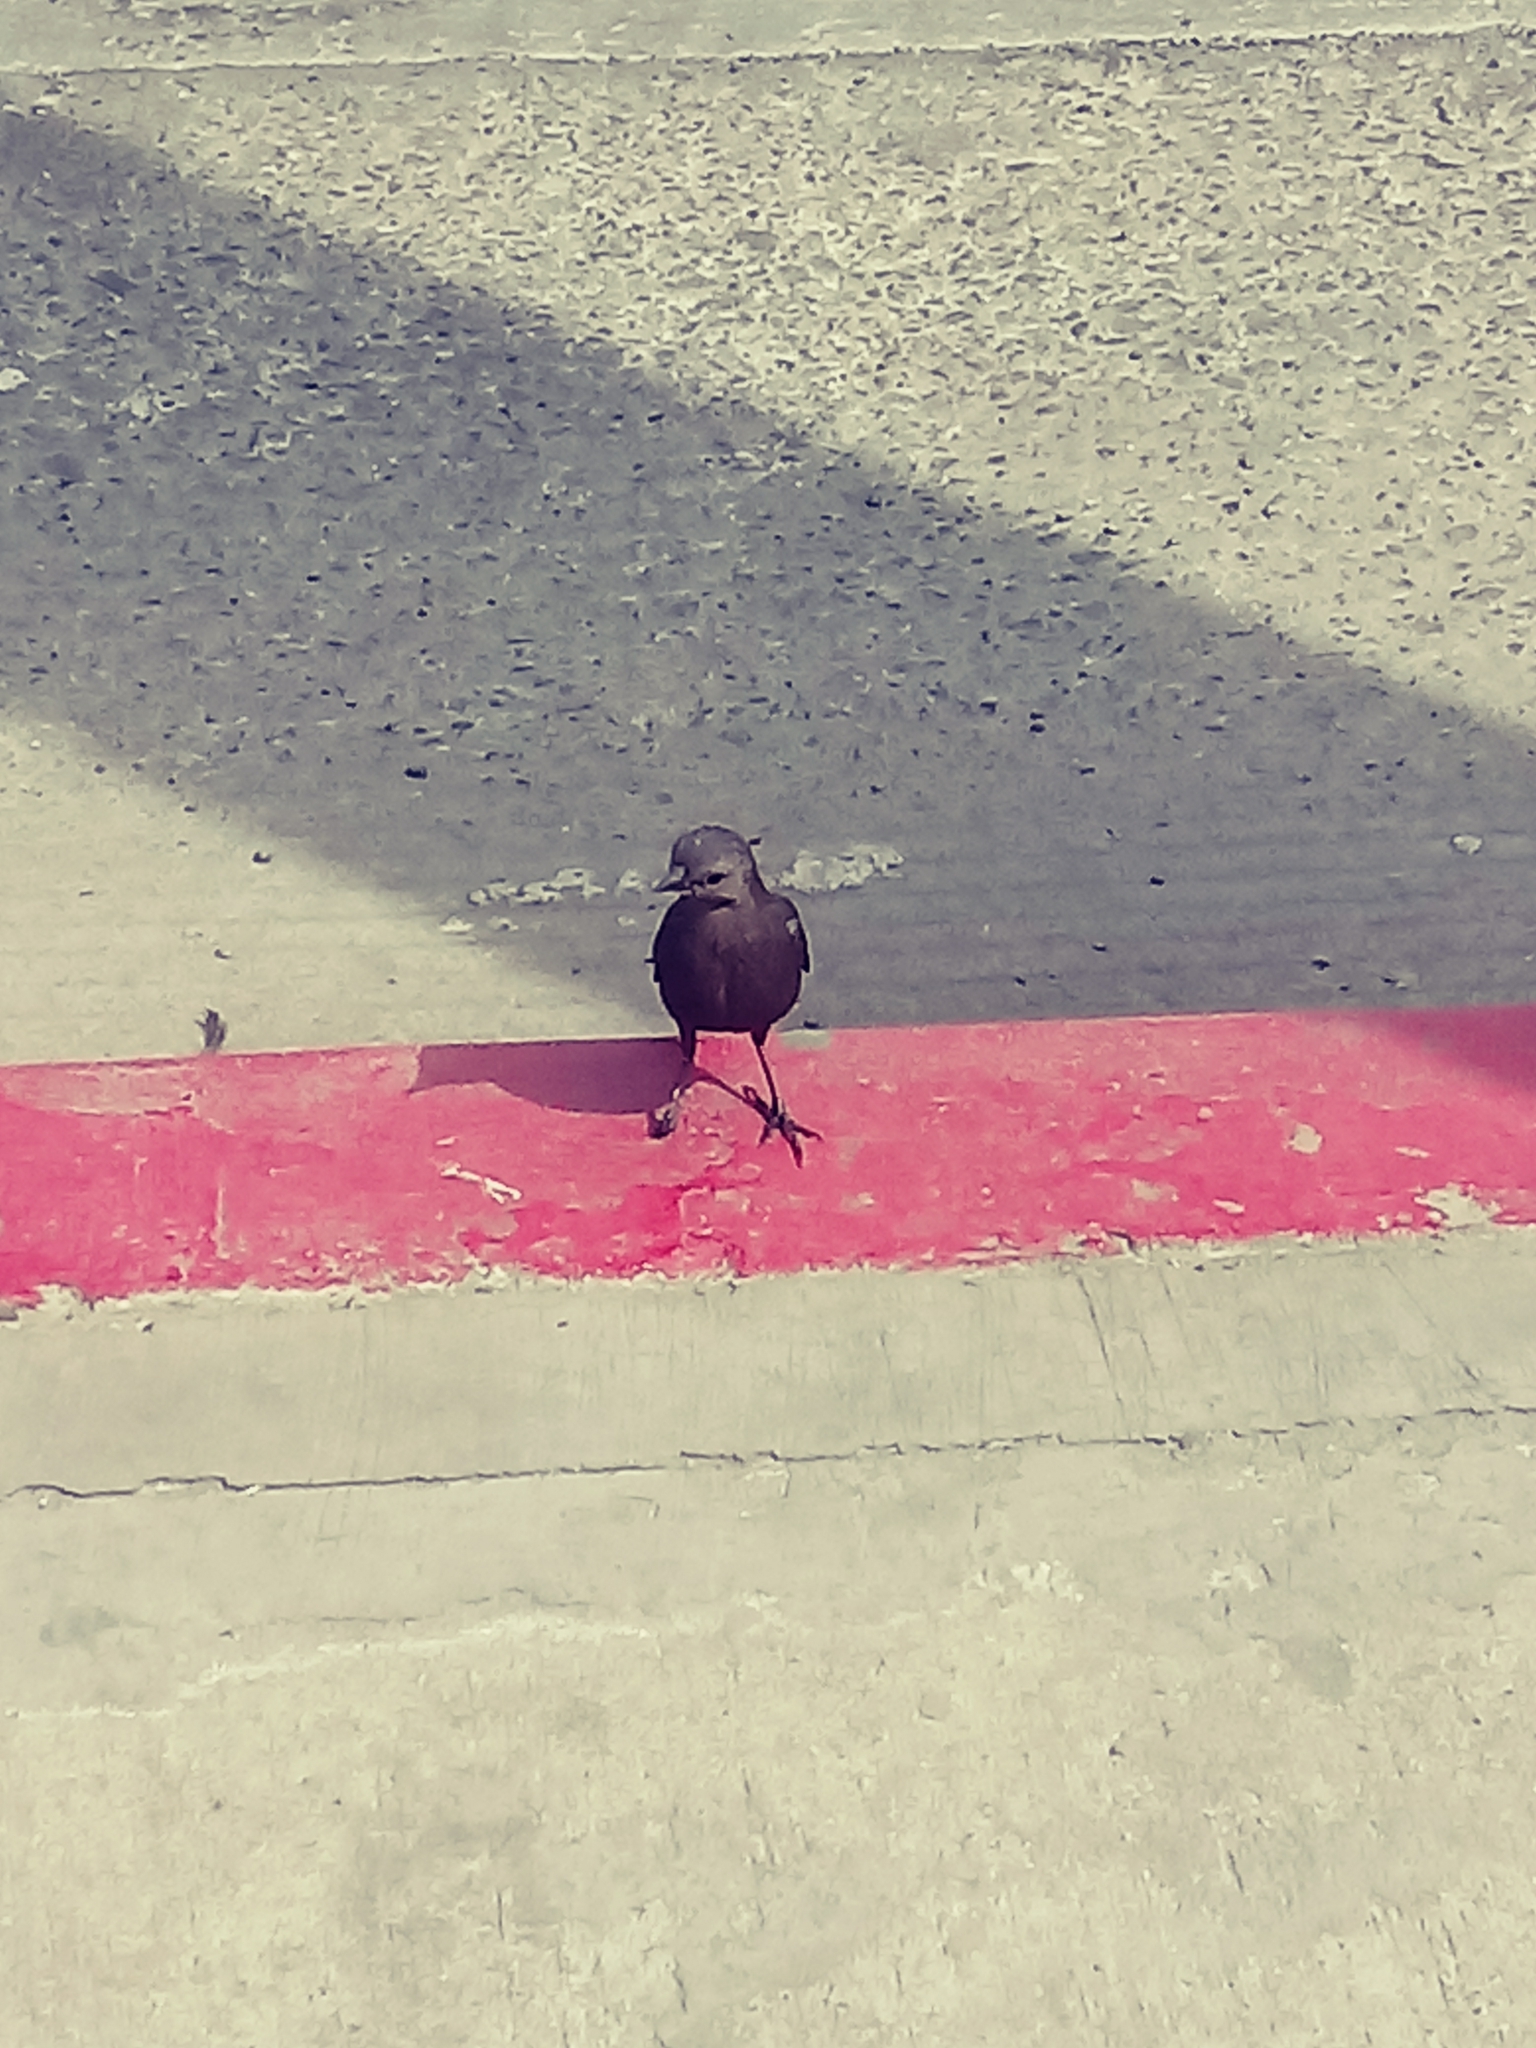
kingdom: Animalia
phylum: Chordata
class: Aves
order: Passeriformes
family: Icteridae
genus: Euphagus
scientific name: Euphagus cyanocephalus
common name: Brewer's blackbird
